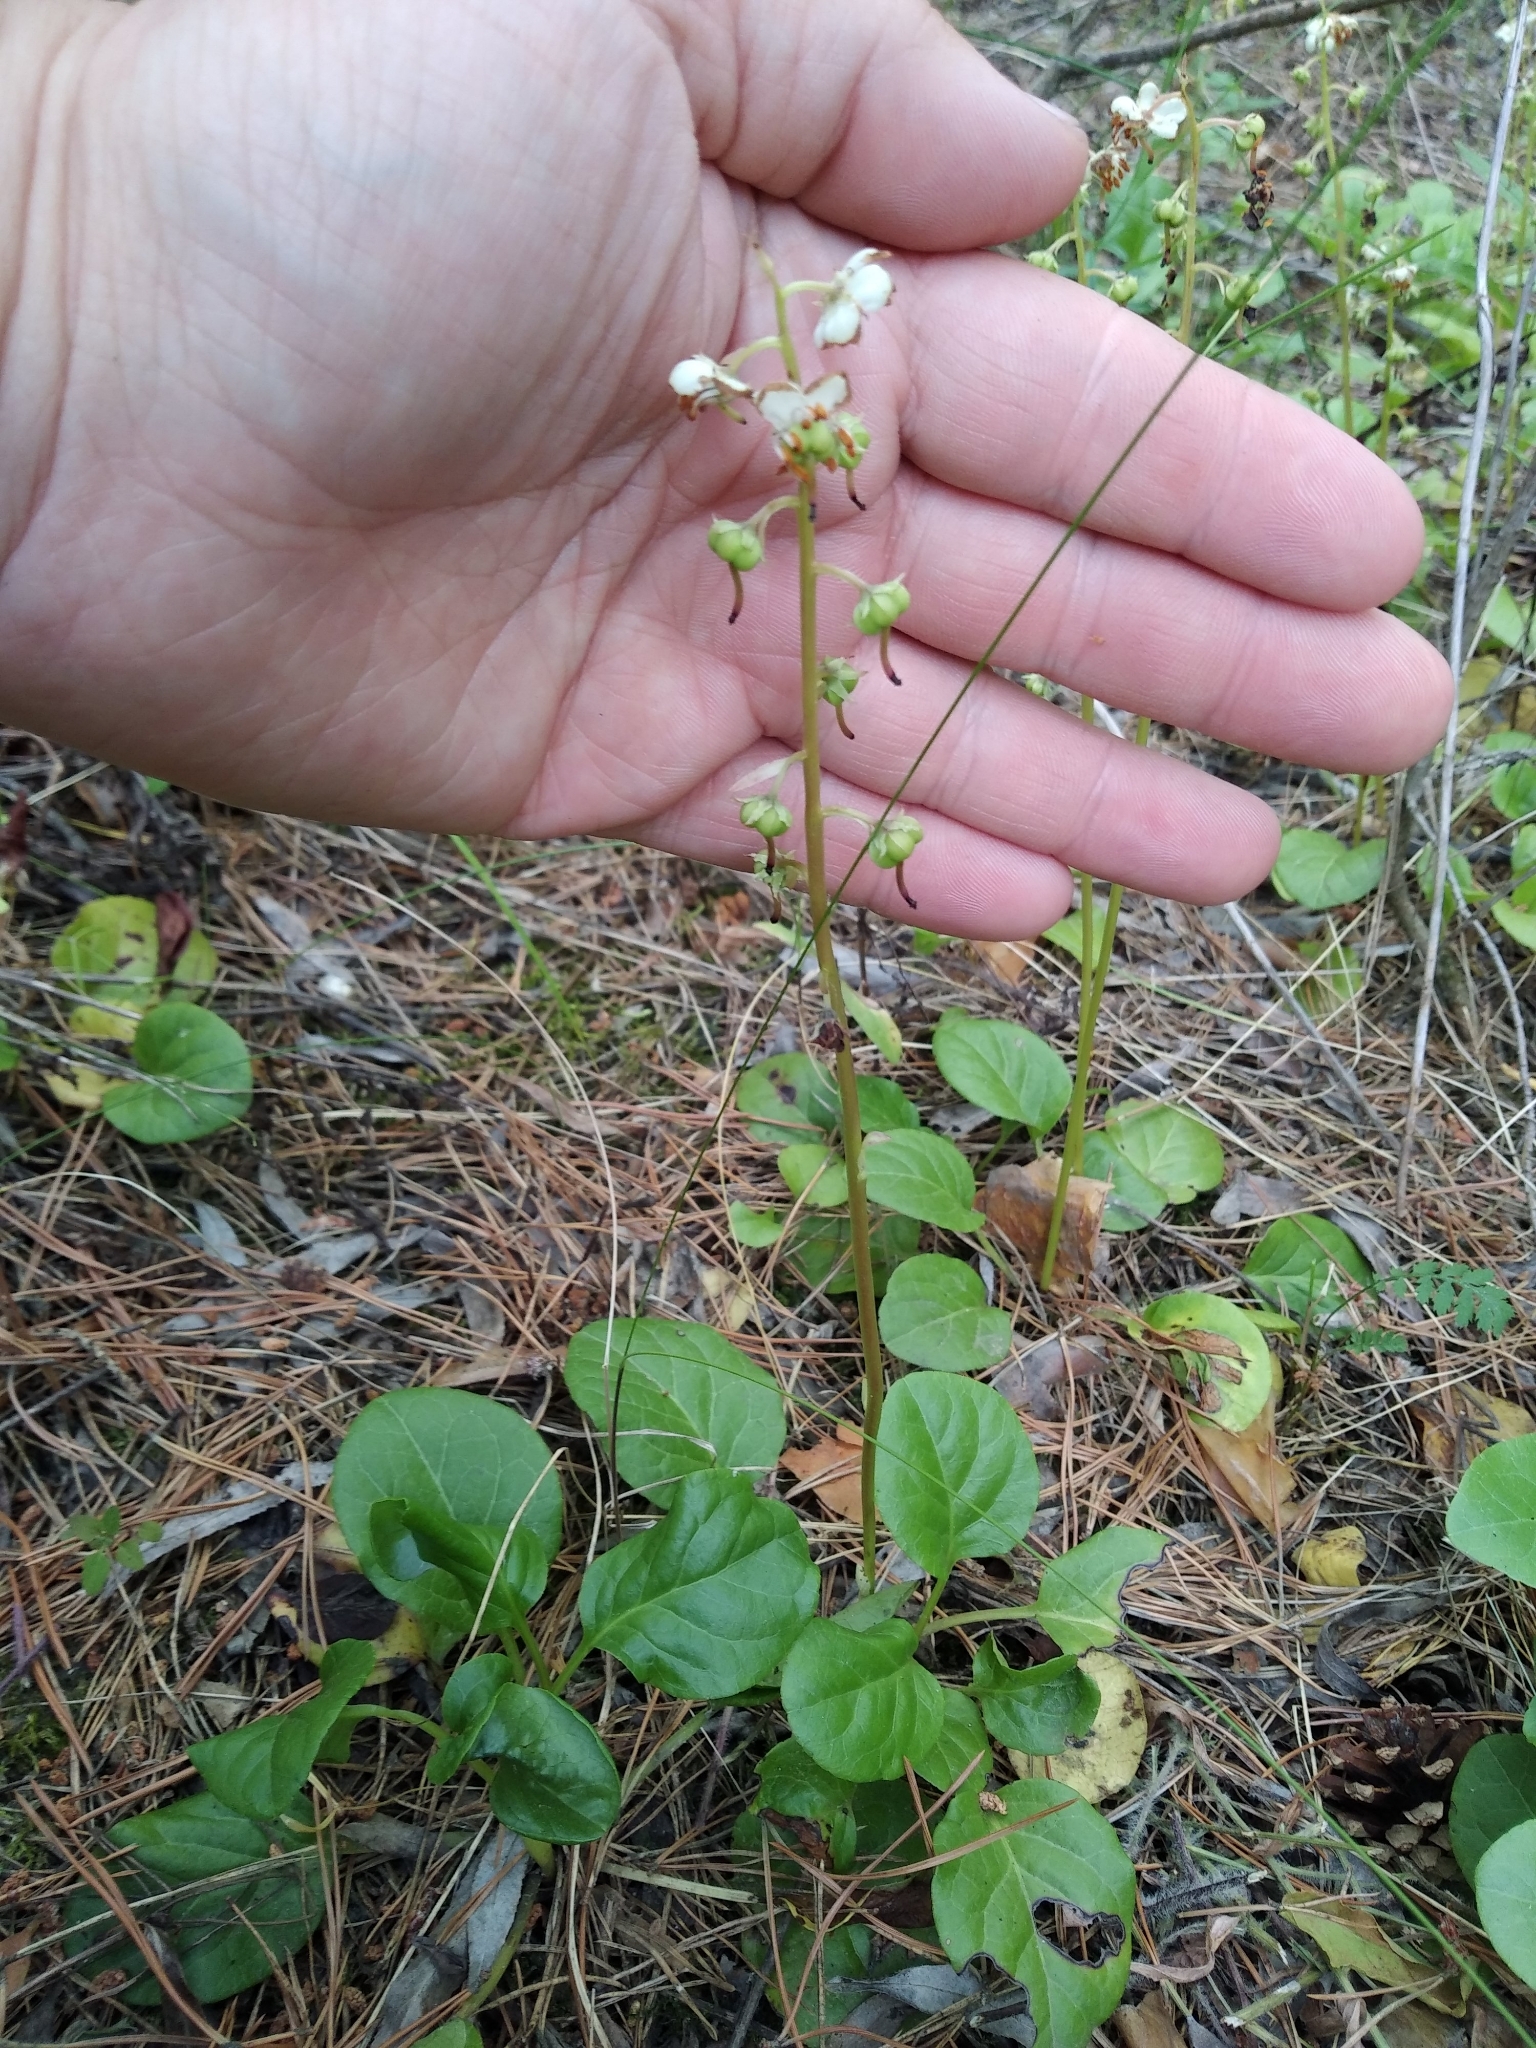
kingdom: Plantae
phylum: Tracheophyta
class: Magnoliopsida
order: Ericales
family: Ericaceae
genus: Pyrola
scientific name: Pyrola rotundifolia
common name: Round-leaved wintergreen
